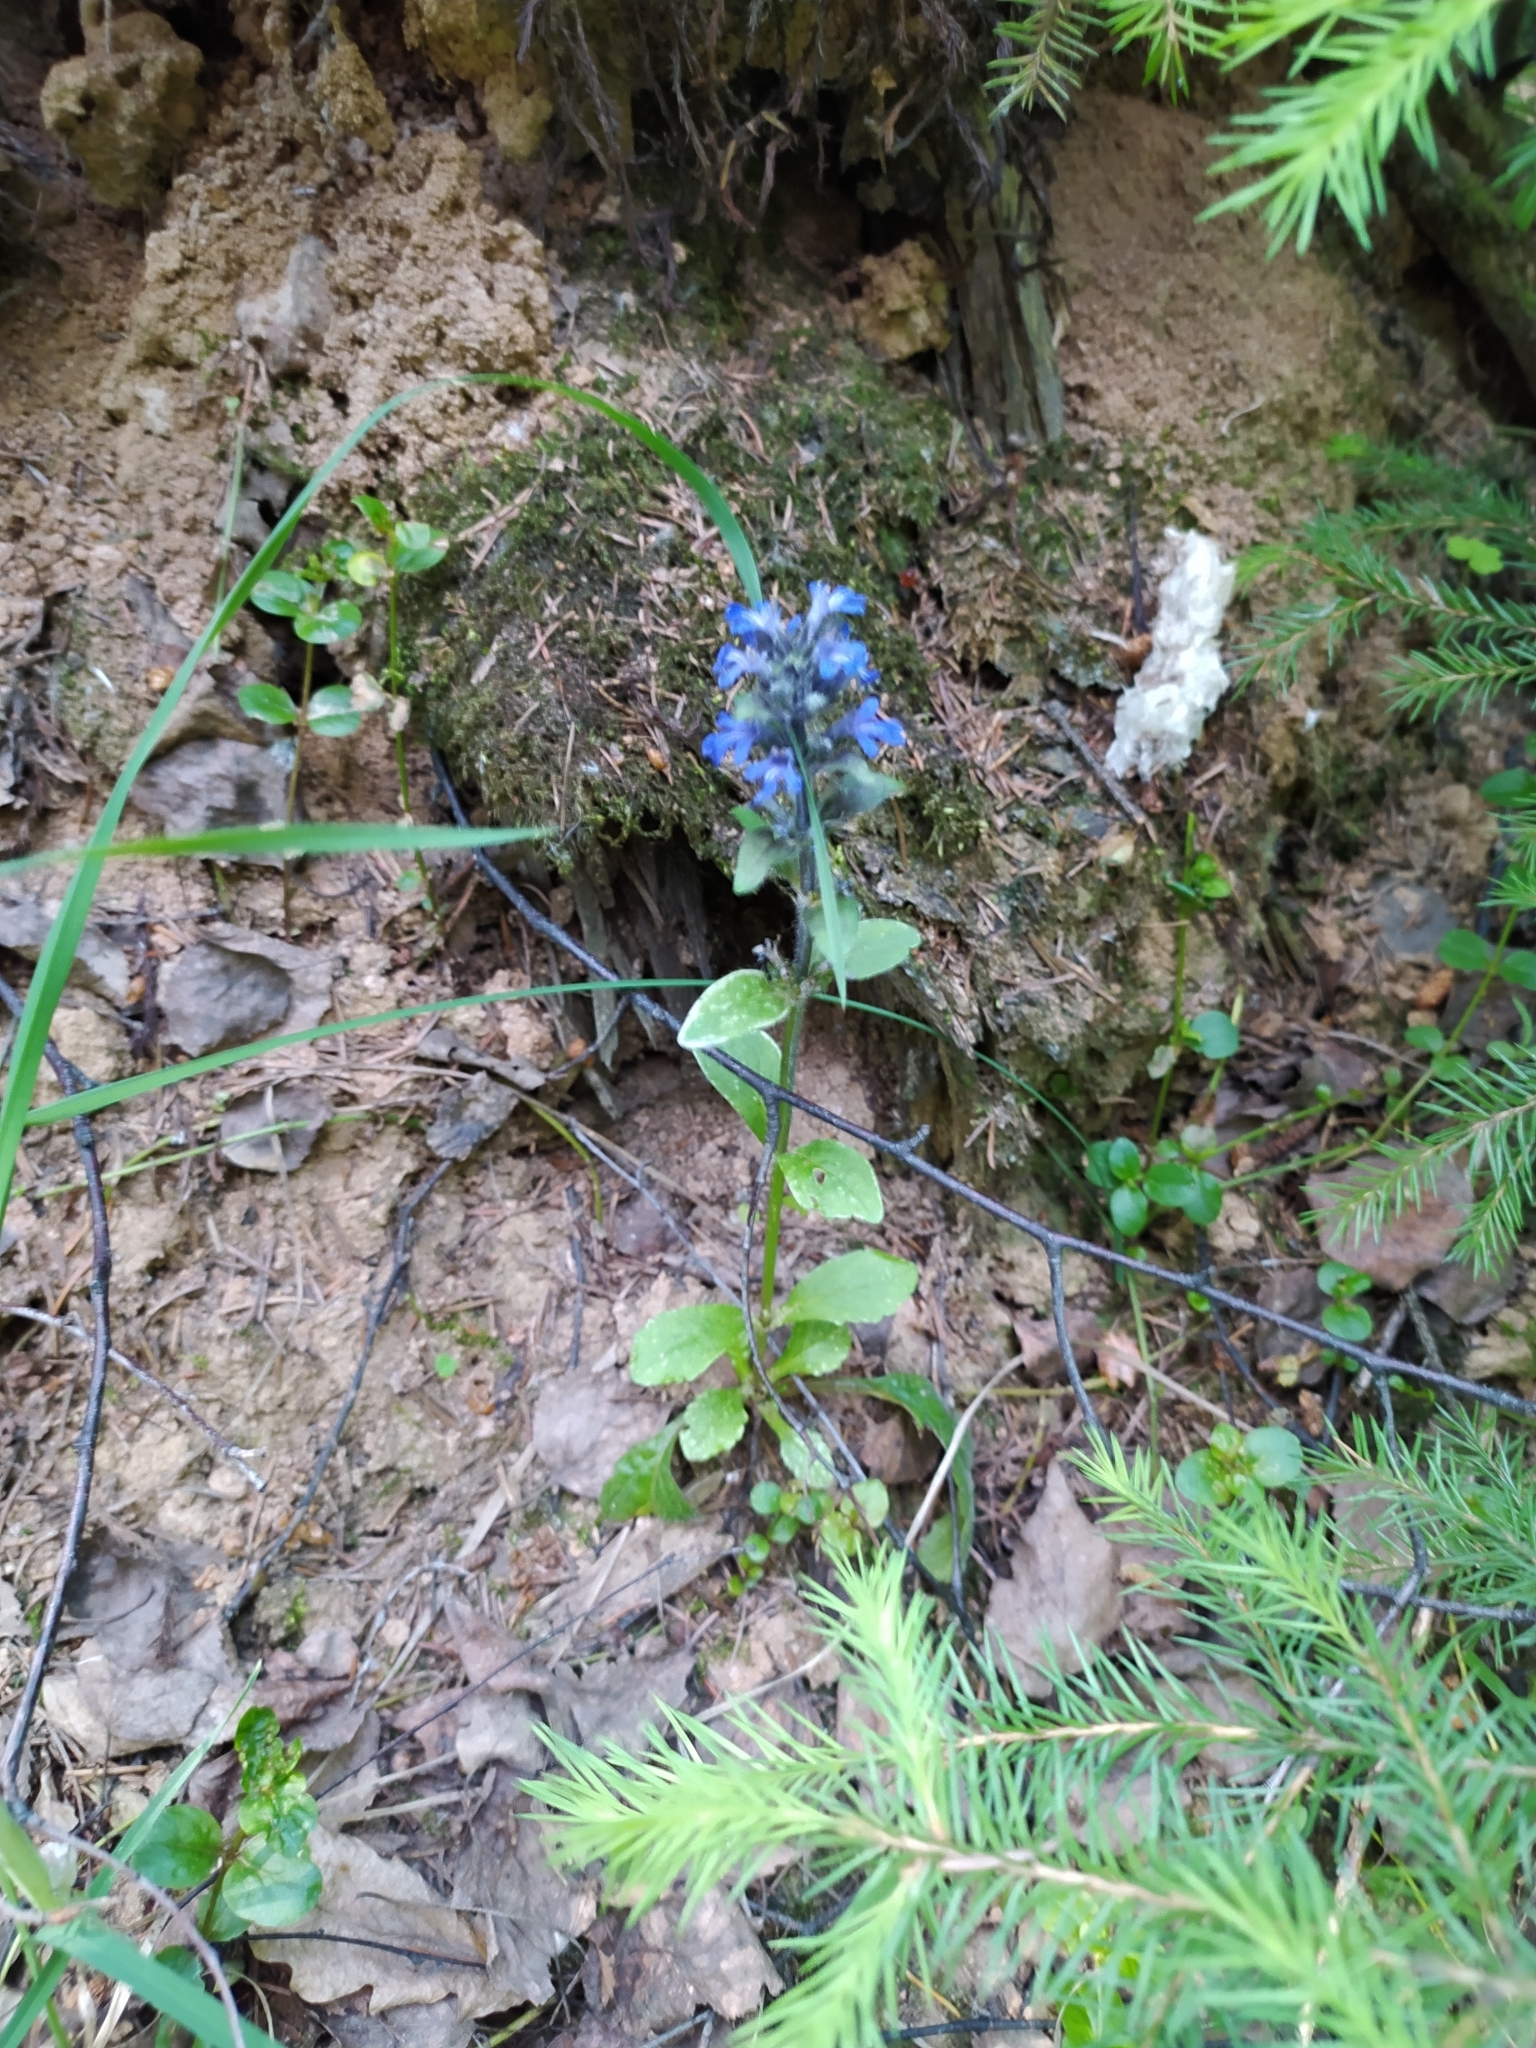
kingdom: Plantae
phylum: Tracheophyta
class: Magnoliopsida
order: Lamiales
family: Lamiaceae
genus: Ajuga
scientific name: Ajuga reptans
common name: Bugle
